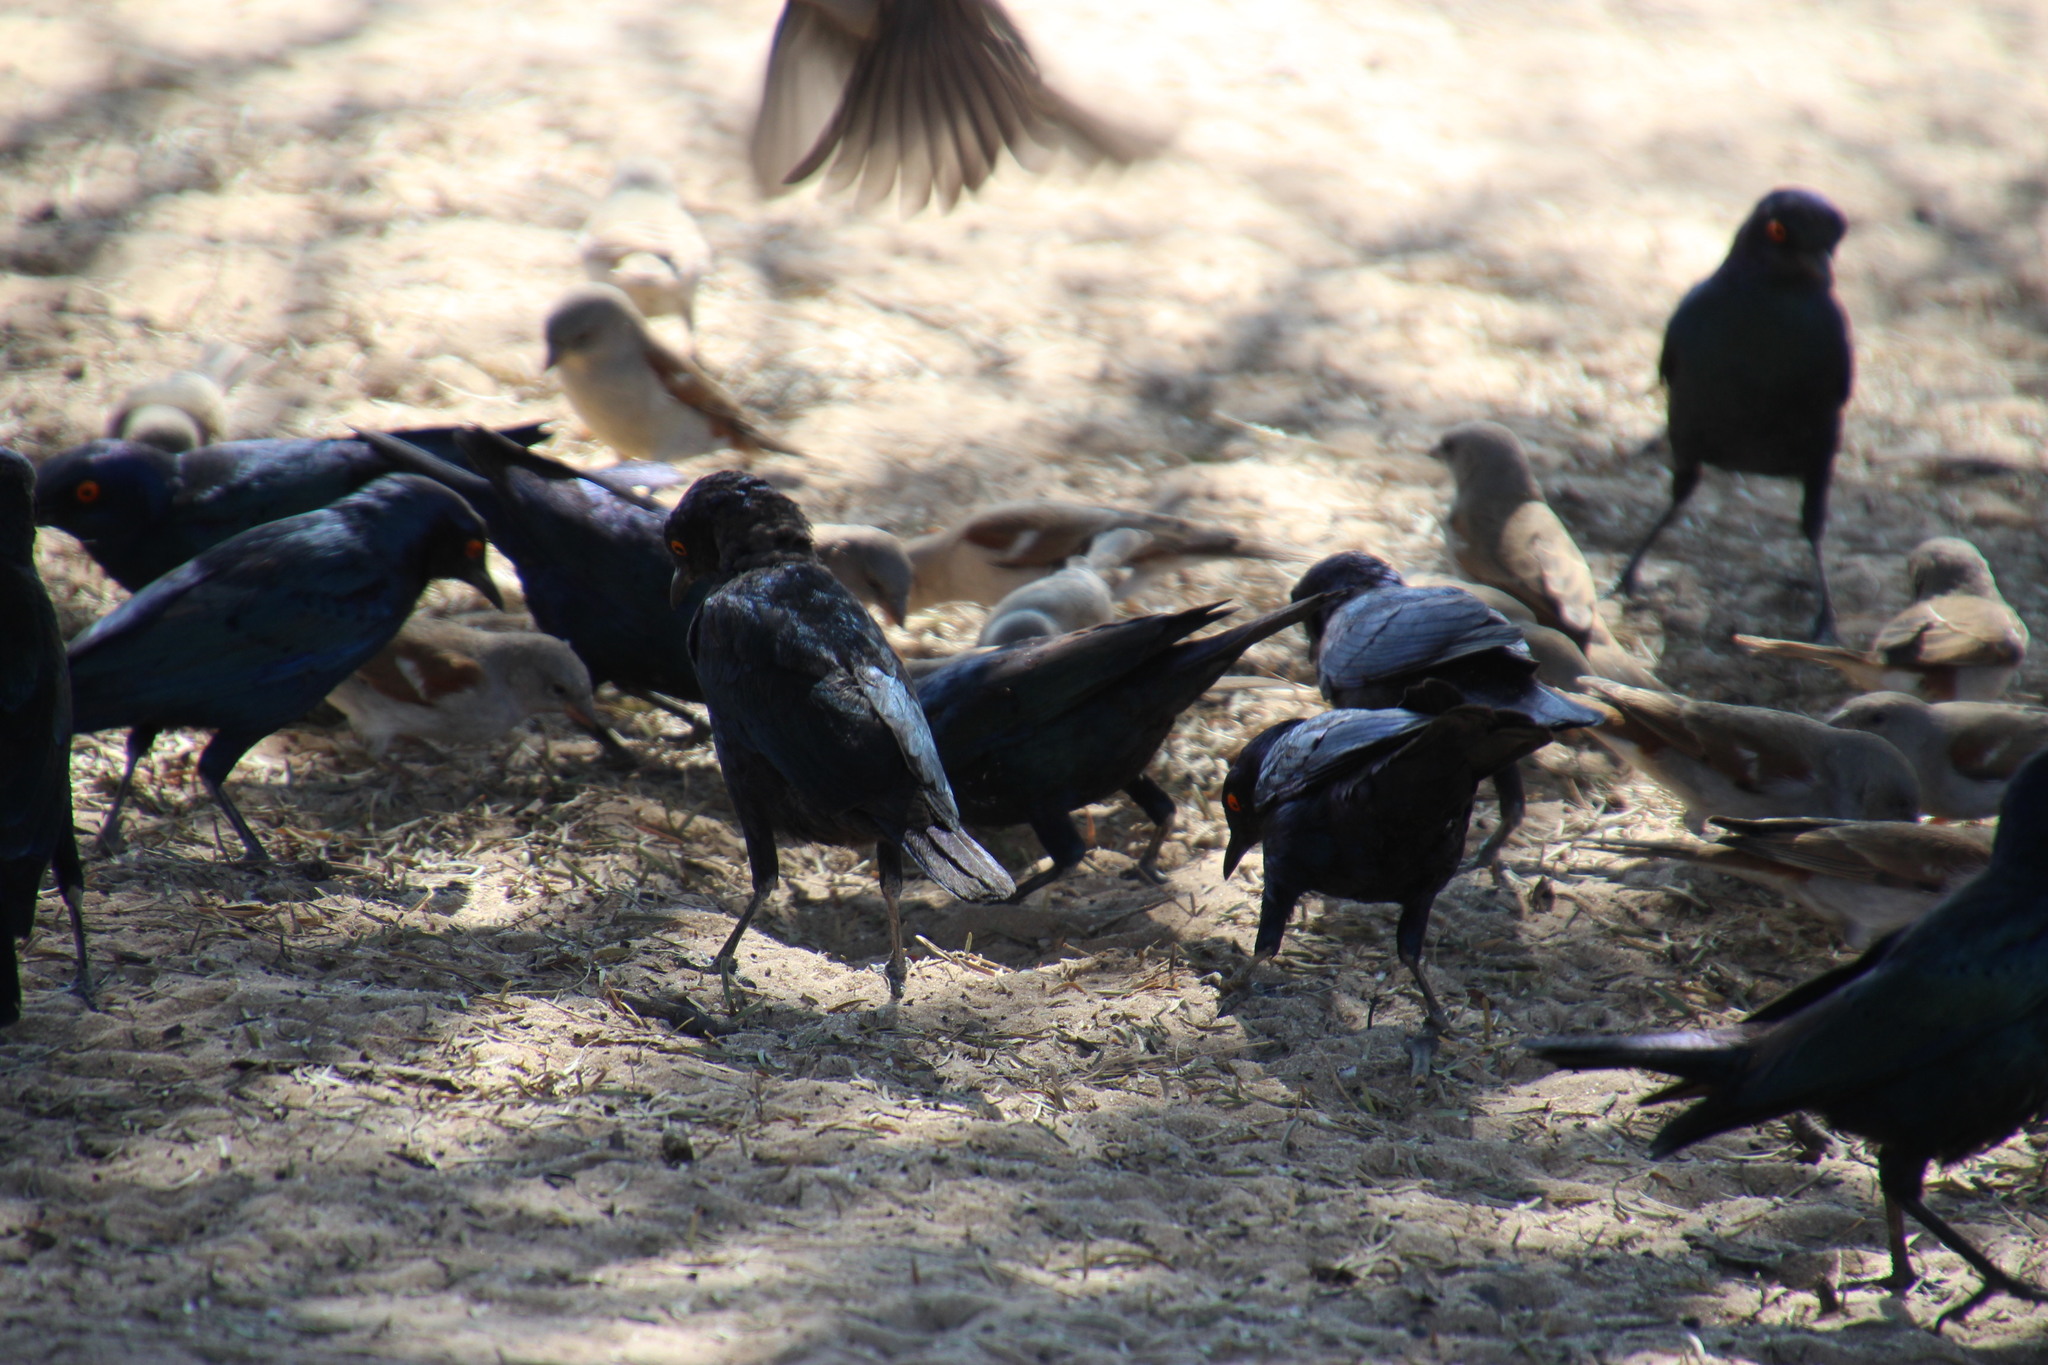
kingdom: Animalia
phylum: Chordata
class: Aves
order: Passeriformes
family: Sturnidae
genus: Lamprotornis
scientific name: Lamprotornis nitens
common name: Cape starling
